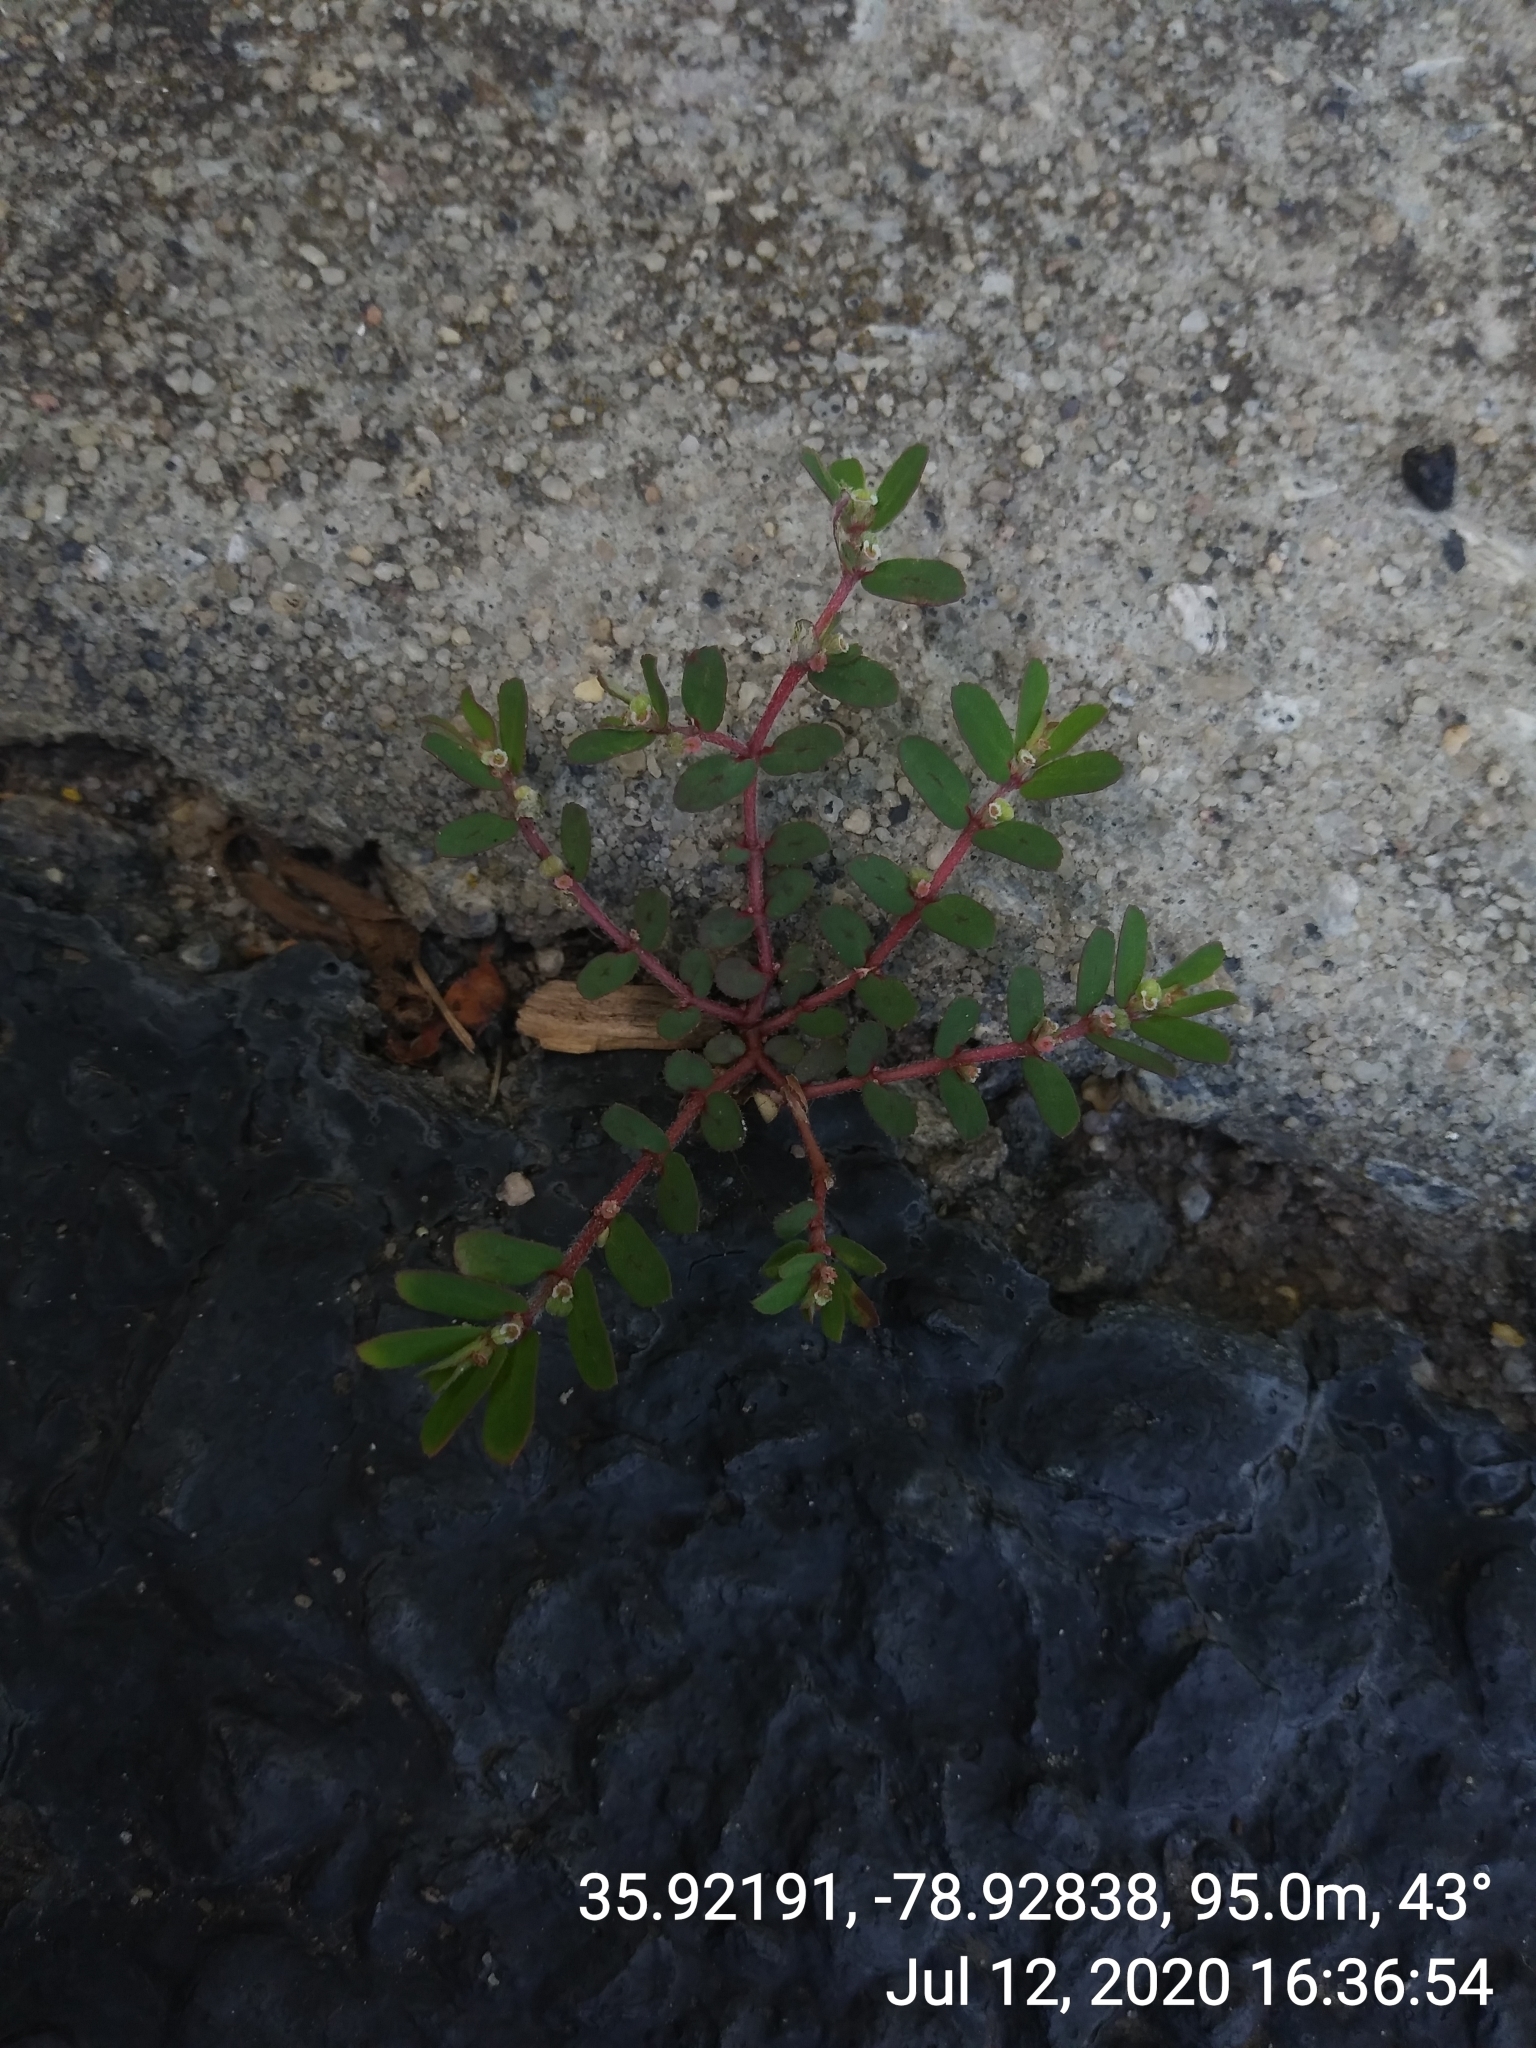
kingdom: Plantae
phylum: Tracheophyta
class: Magnoliopsida
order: Malpighiales
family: Euphorbiaceae
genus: Euphorbia
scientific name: Euphorbia maculata
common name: Spotted spurge
